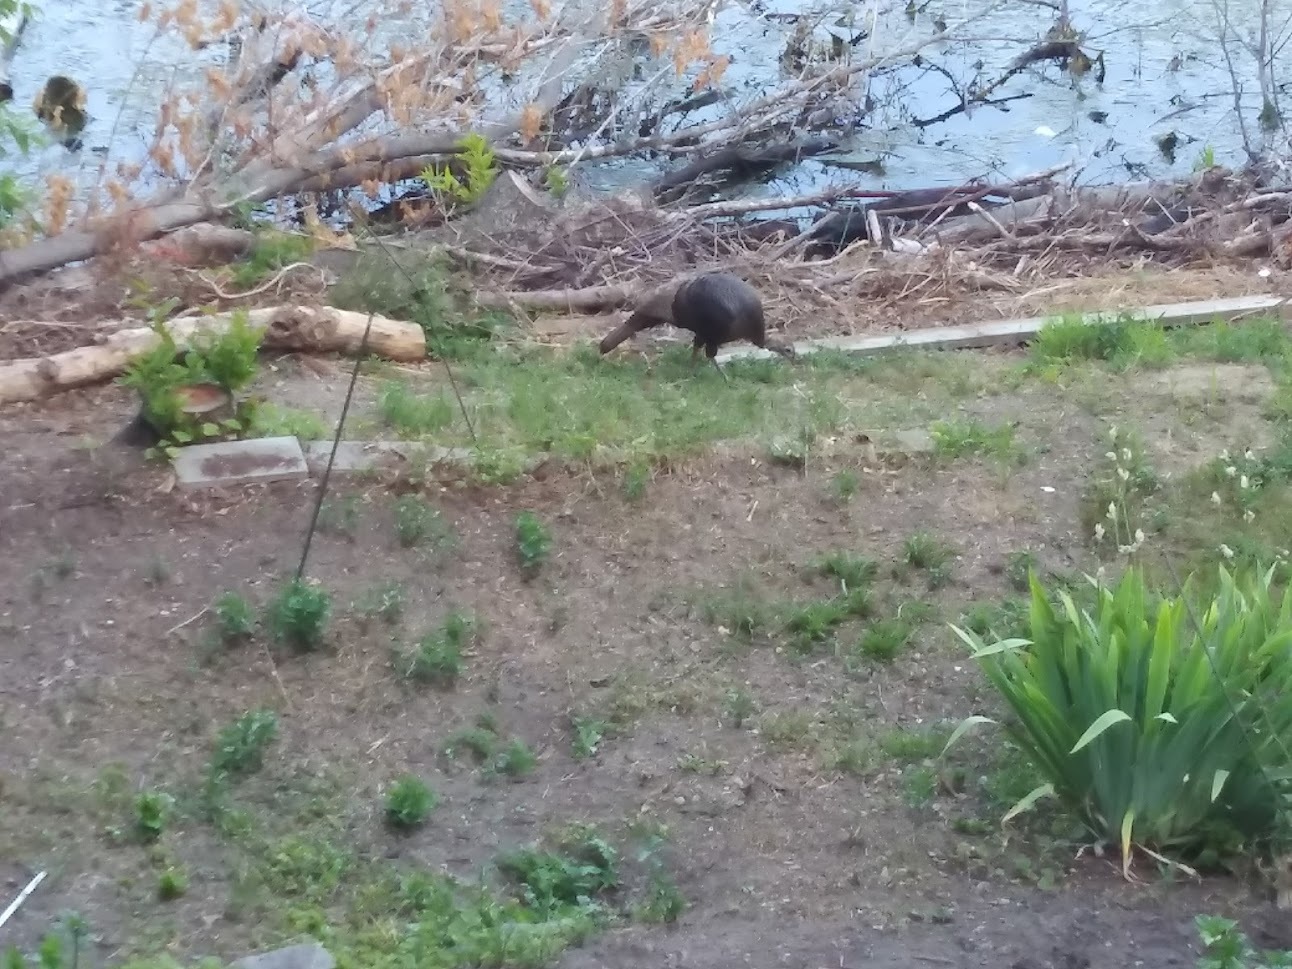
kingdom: Animalia
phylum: Chordata
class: Aves
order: Galliformes
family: Phasianidae
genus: Meleagris
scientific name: Meleagris gallopavo
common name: Wild turkey
